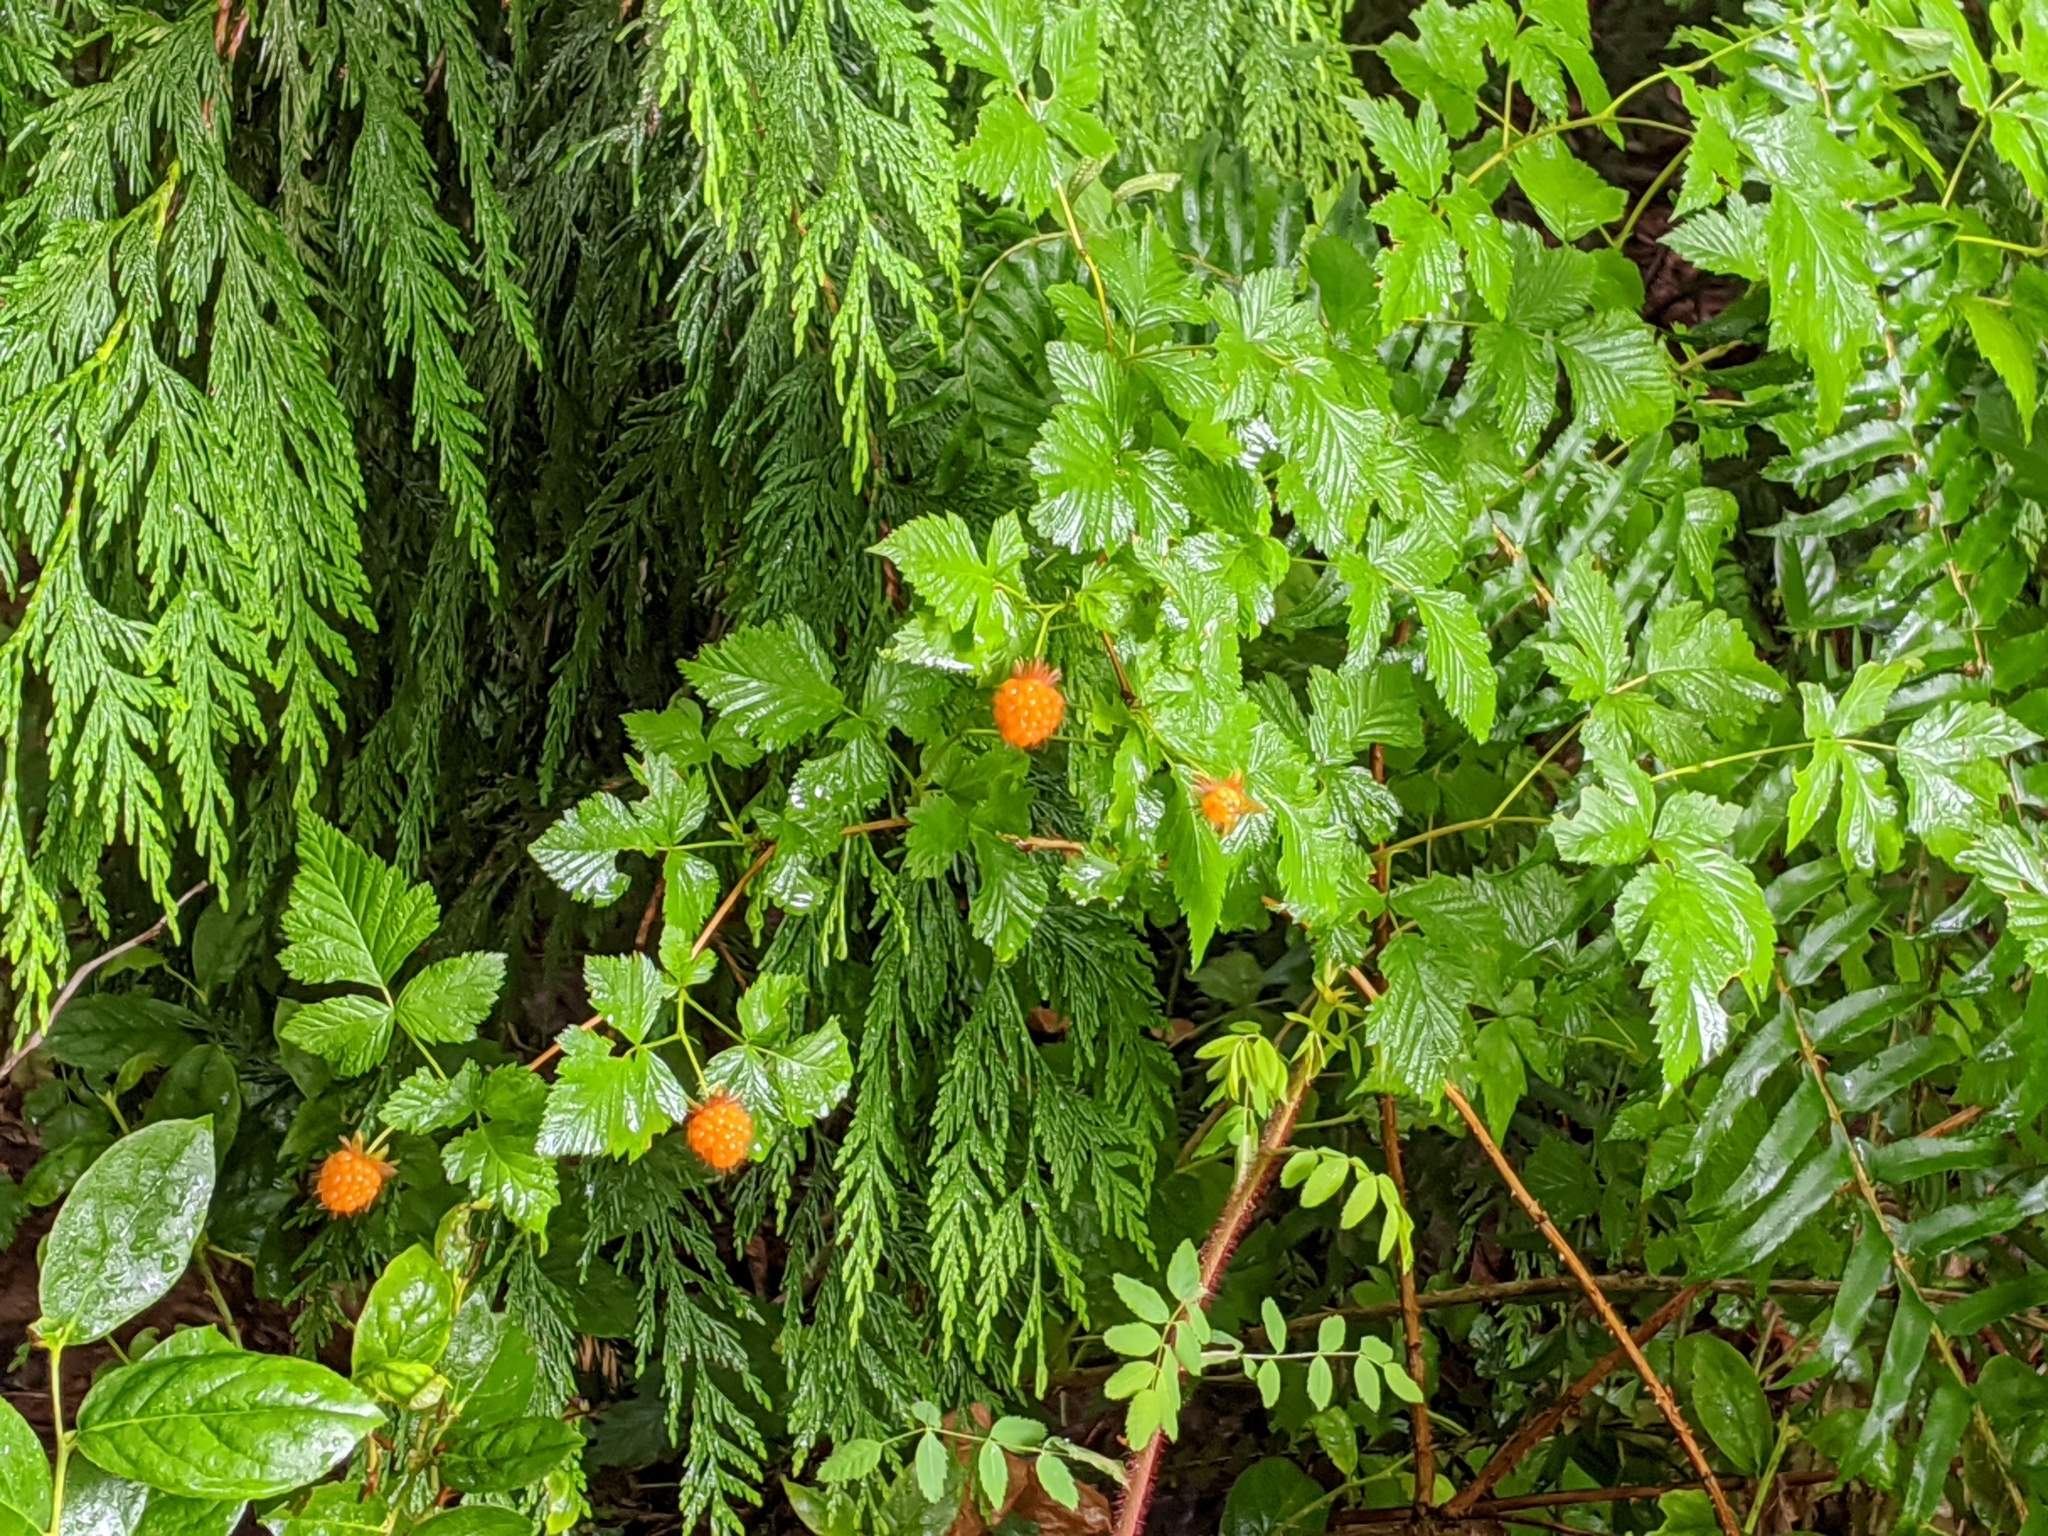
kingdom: Plantae
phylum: Tracheophyta
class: Magnoliopsida
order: Rosales
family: Rosaceae
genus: Rubus
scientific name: Rubus spectabilis
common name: Salmonberry
